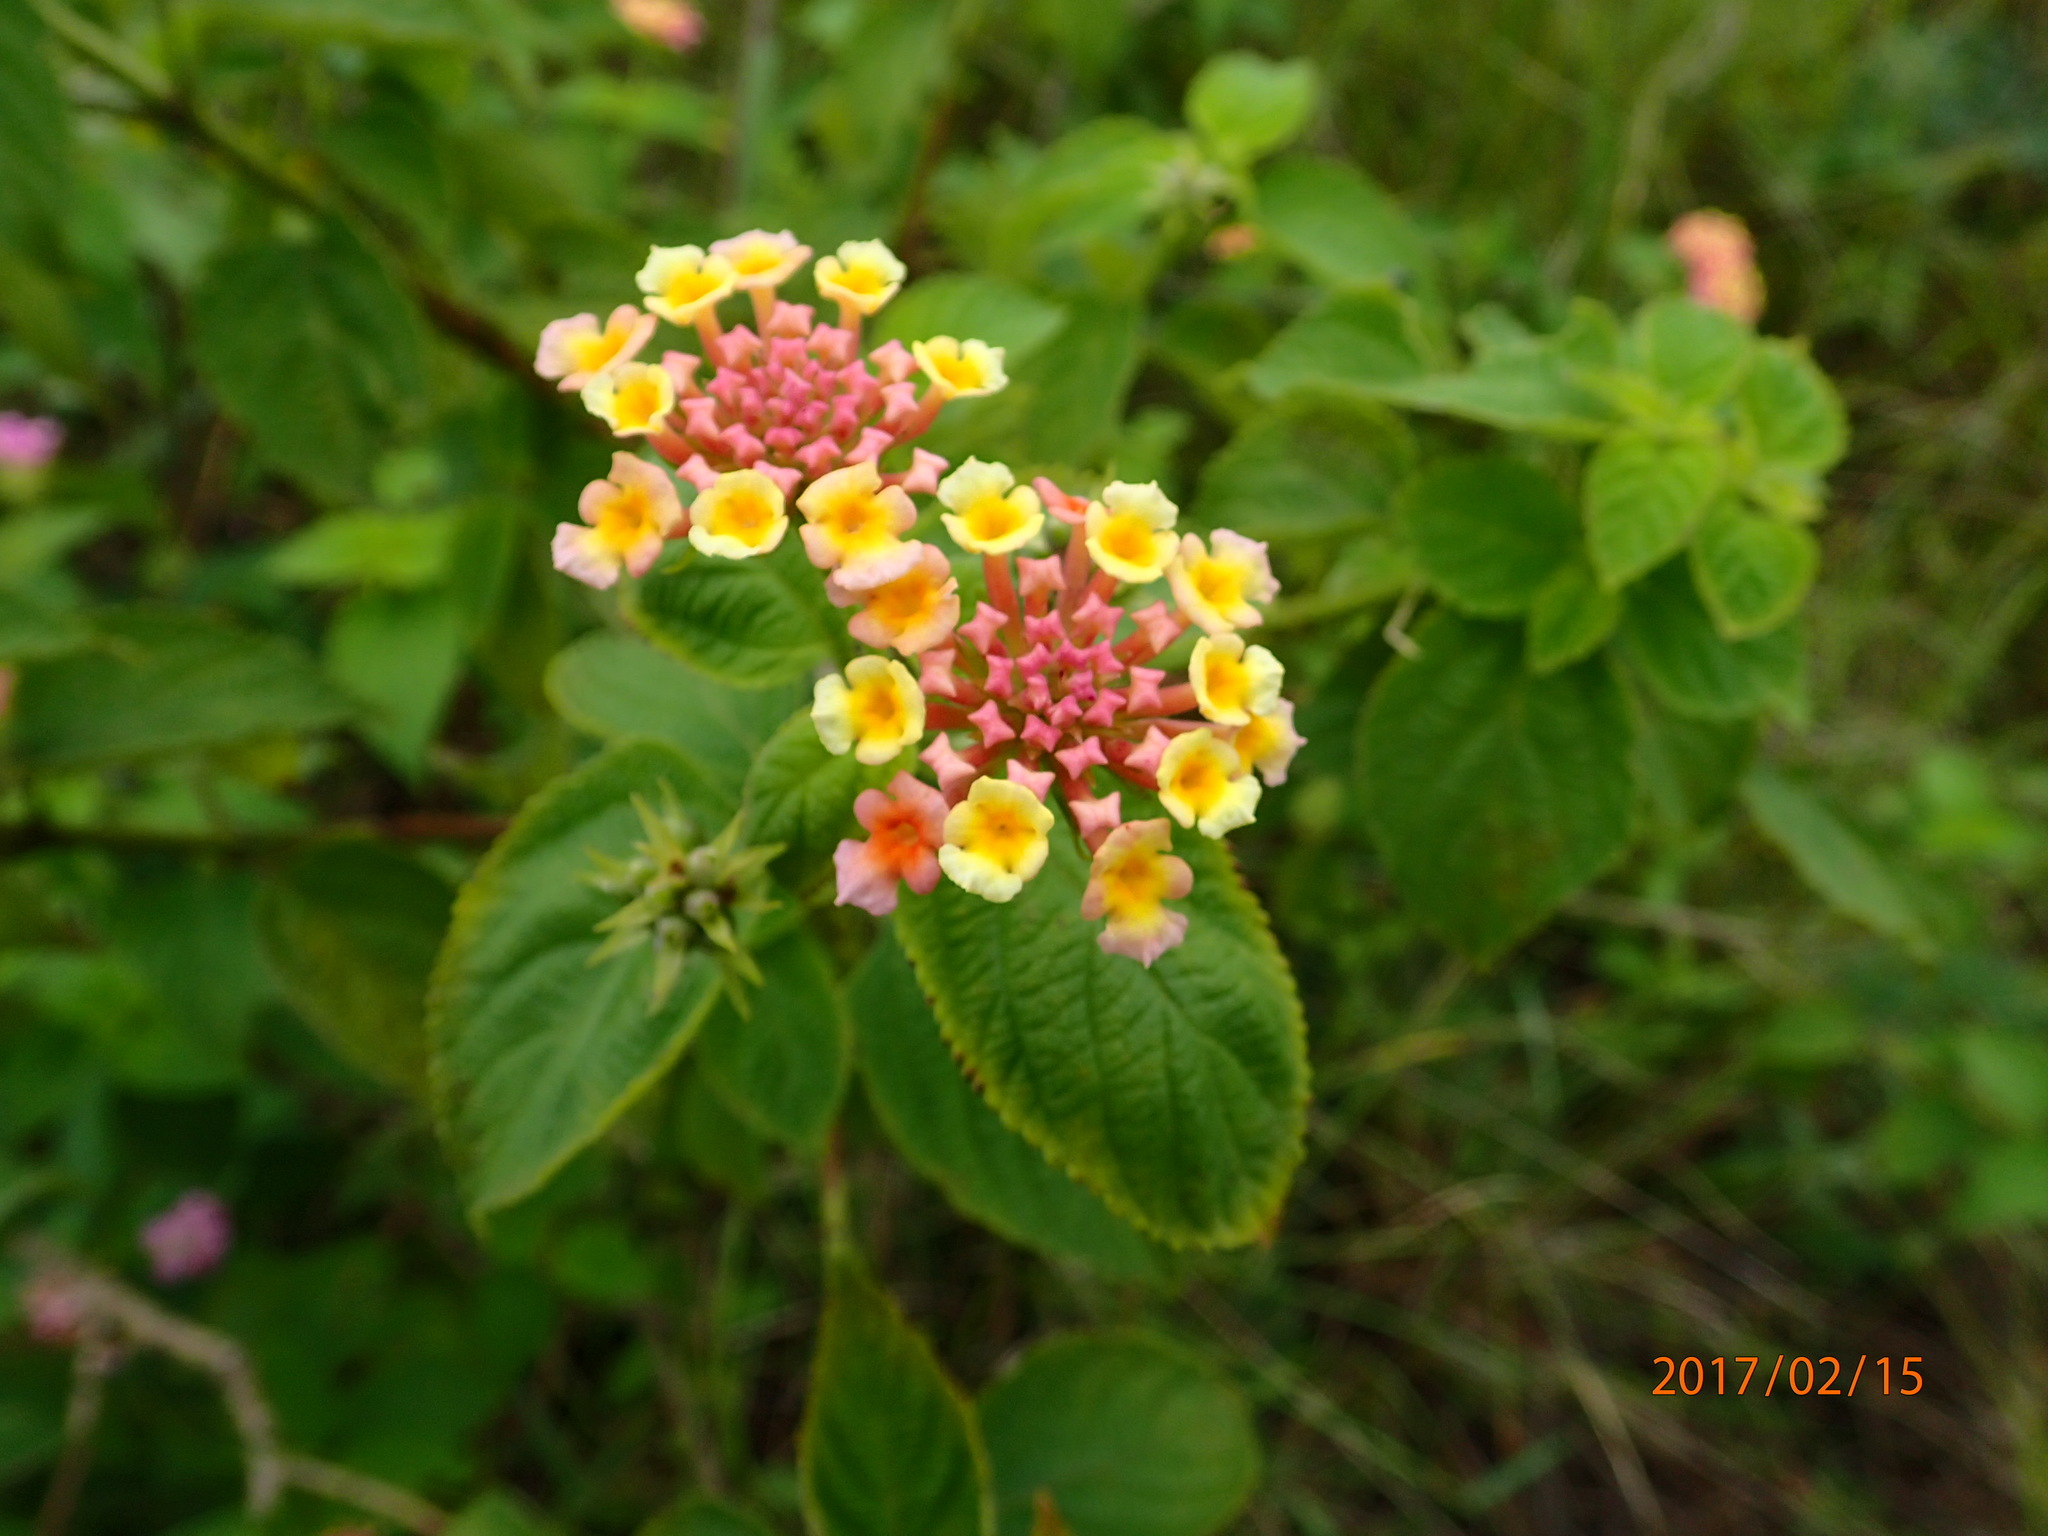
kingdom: Plantae
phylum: Tracheophyta
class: Magnoliopsida
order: Lamiales
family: Verbenaceae
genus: Lantana
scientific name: Lantana camara
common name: Lantana
